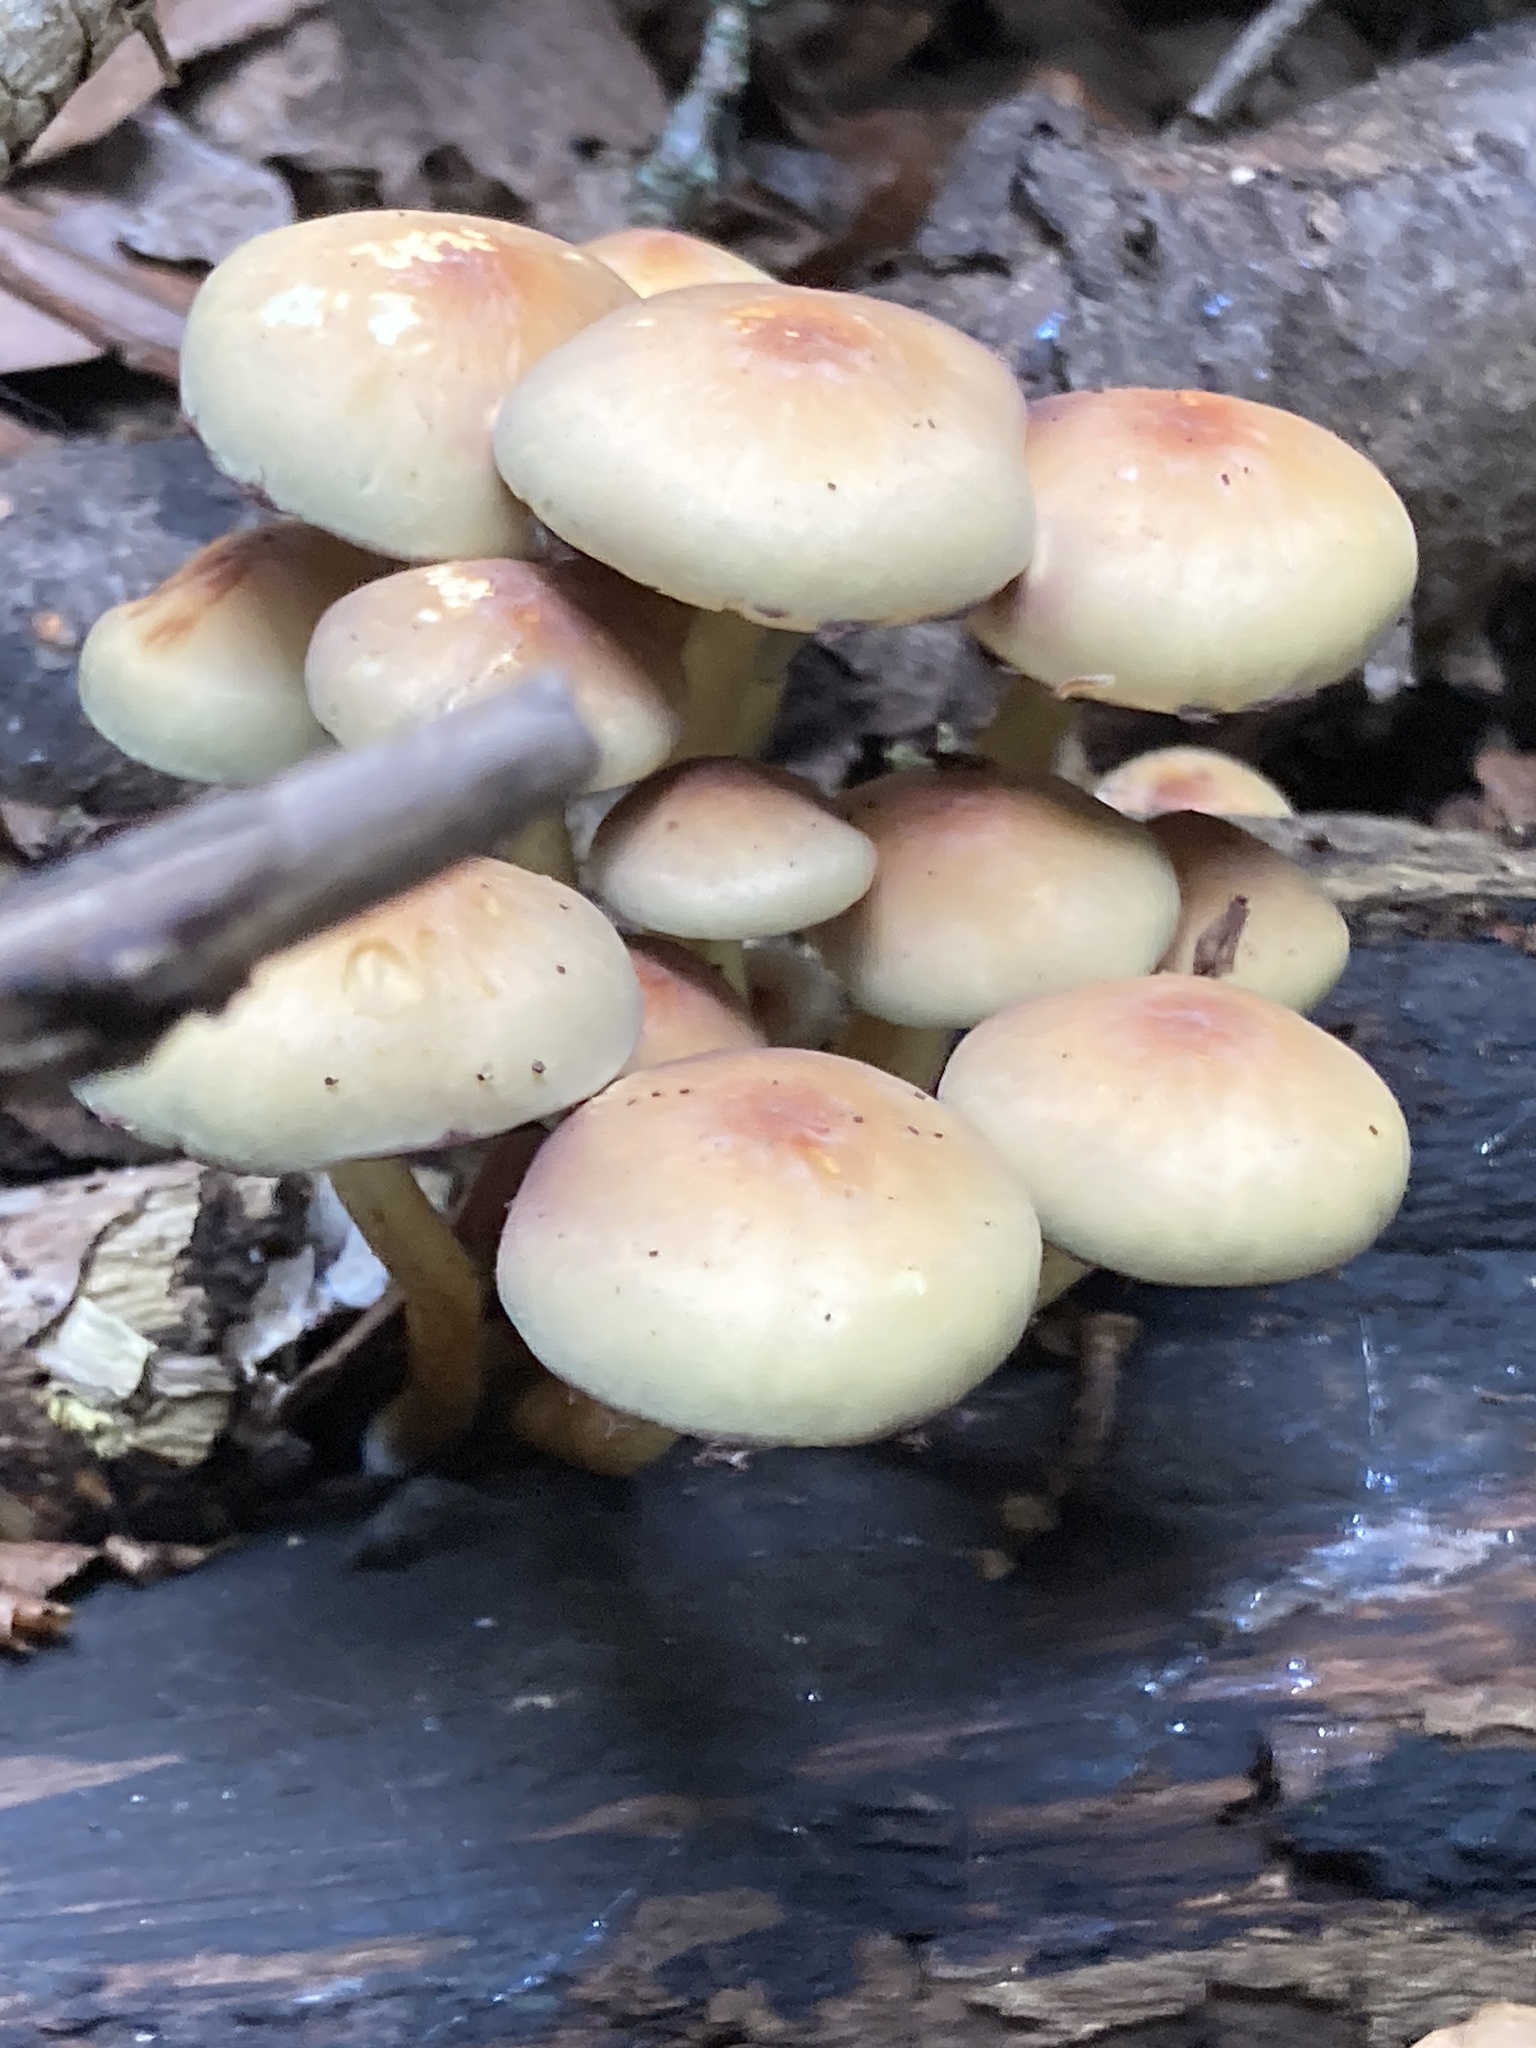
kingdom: Fungi
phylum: Basidiomycota
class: Agaricomycetes
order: Agaricales
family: Strophariaceae
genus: Hypholoma
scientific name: Hypholoma fasciculare
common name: Sulphur tuft
